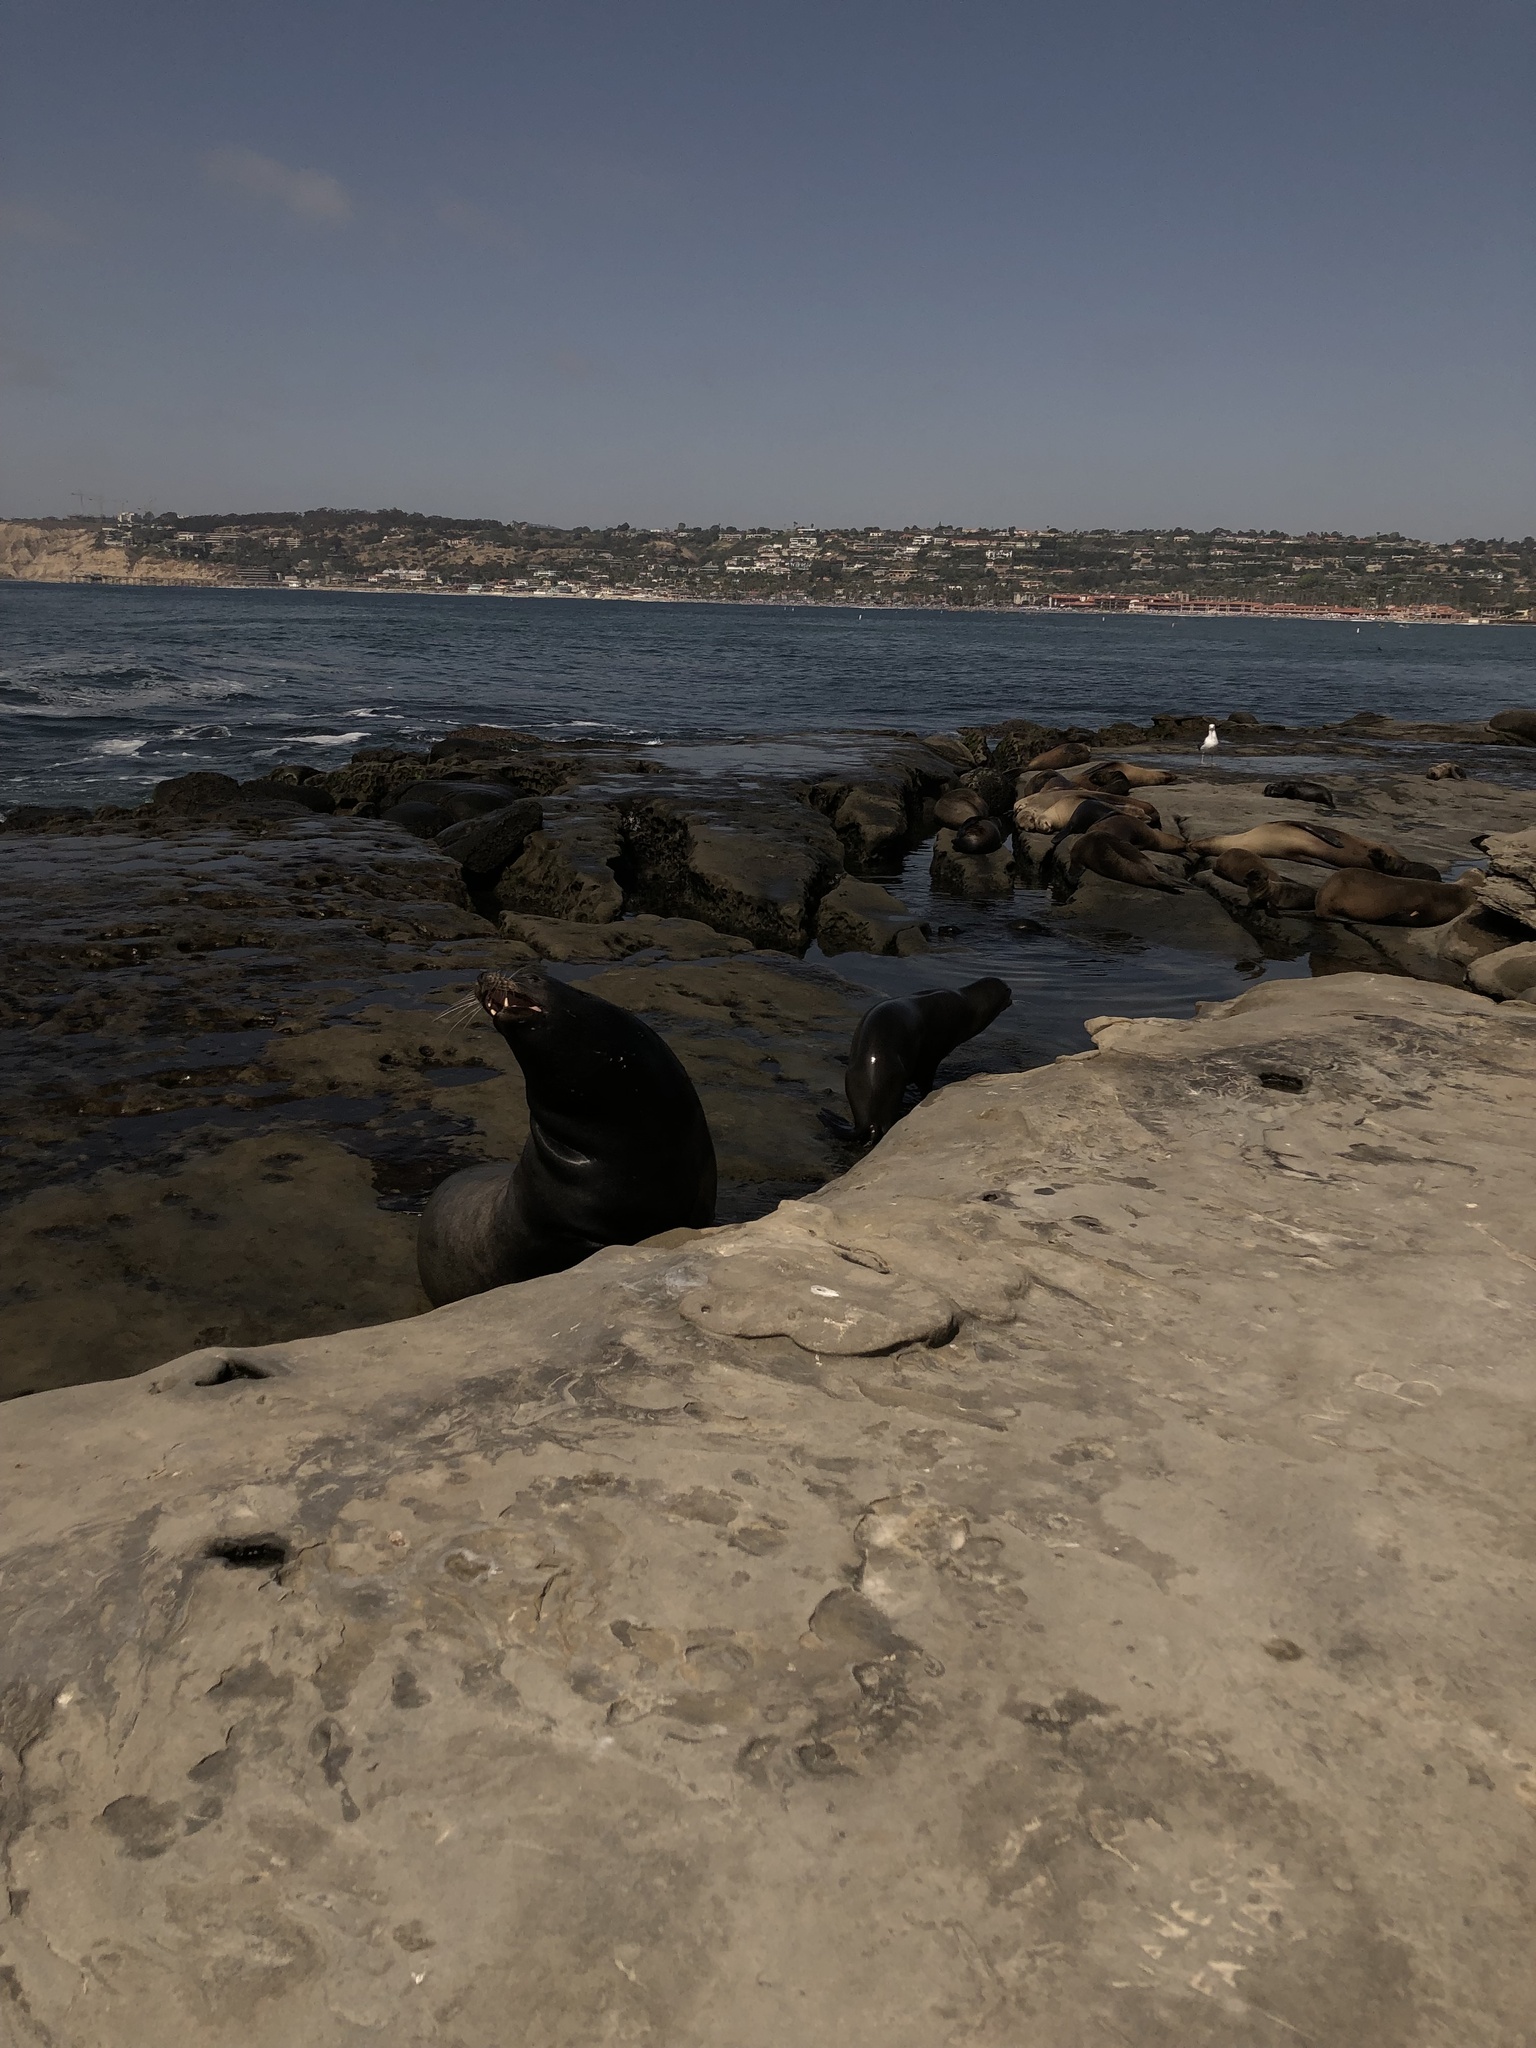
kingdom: Animalia
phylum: Chordata
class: Mammalia
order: Carnivora
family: Otariidae
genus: Zalophus
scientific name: Zalophus californianus
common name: California sea lion
